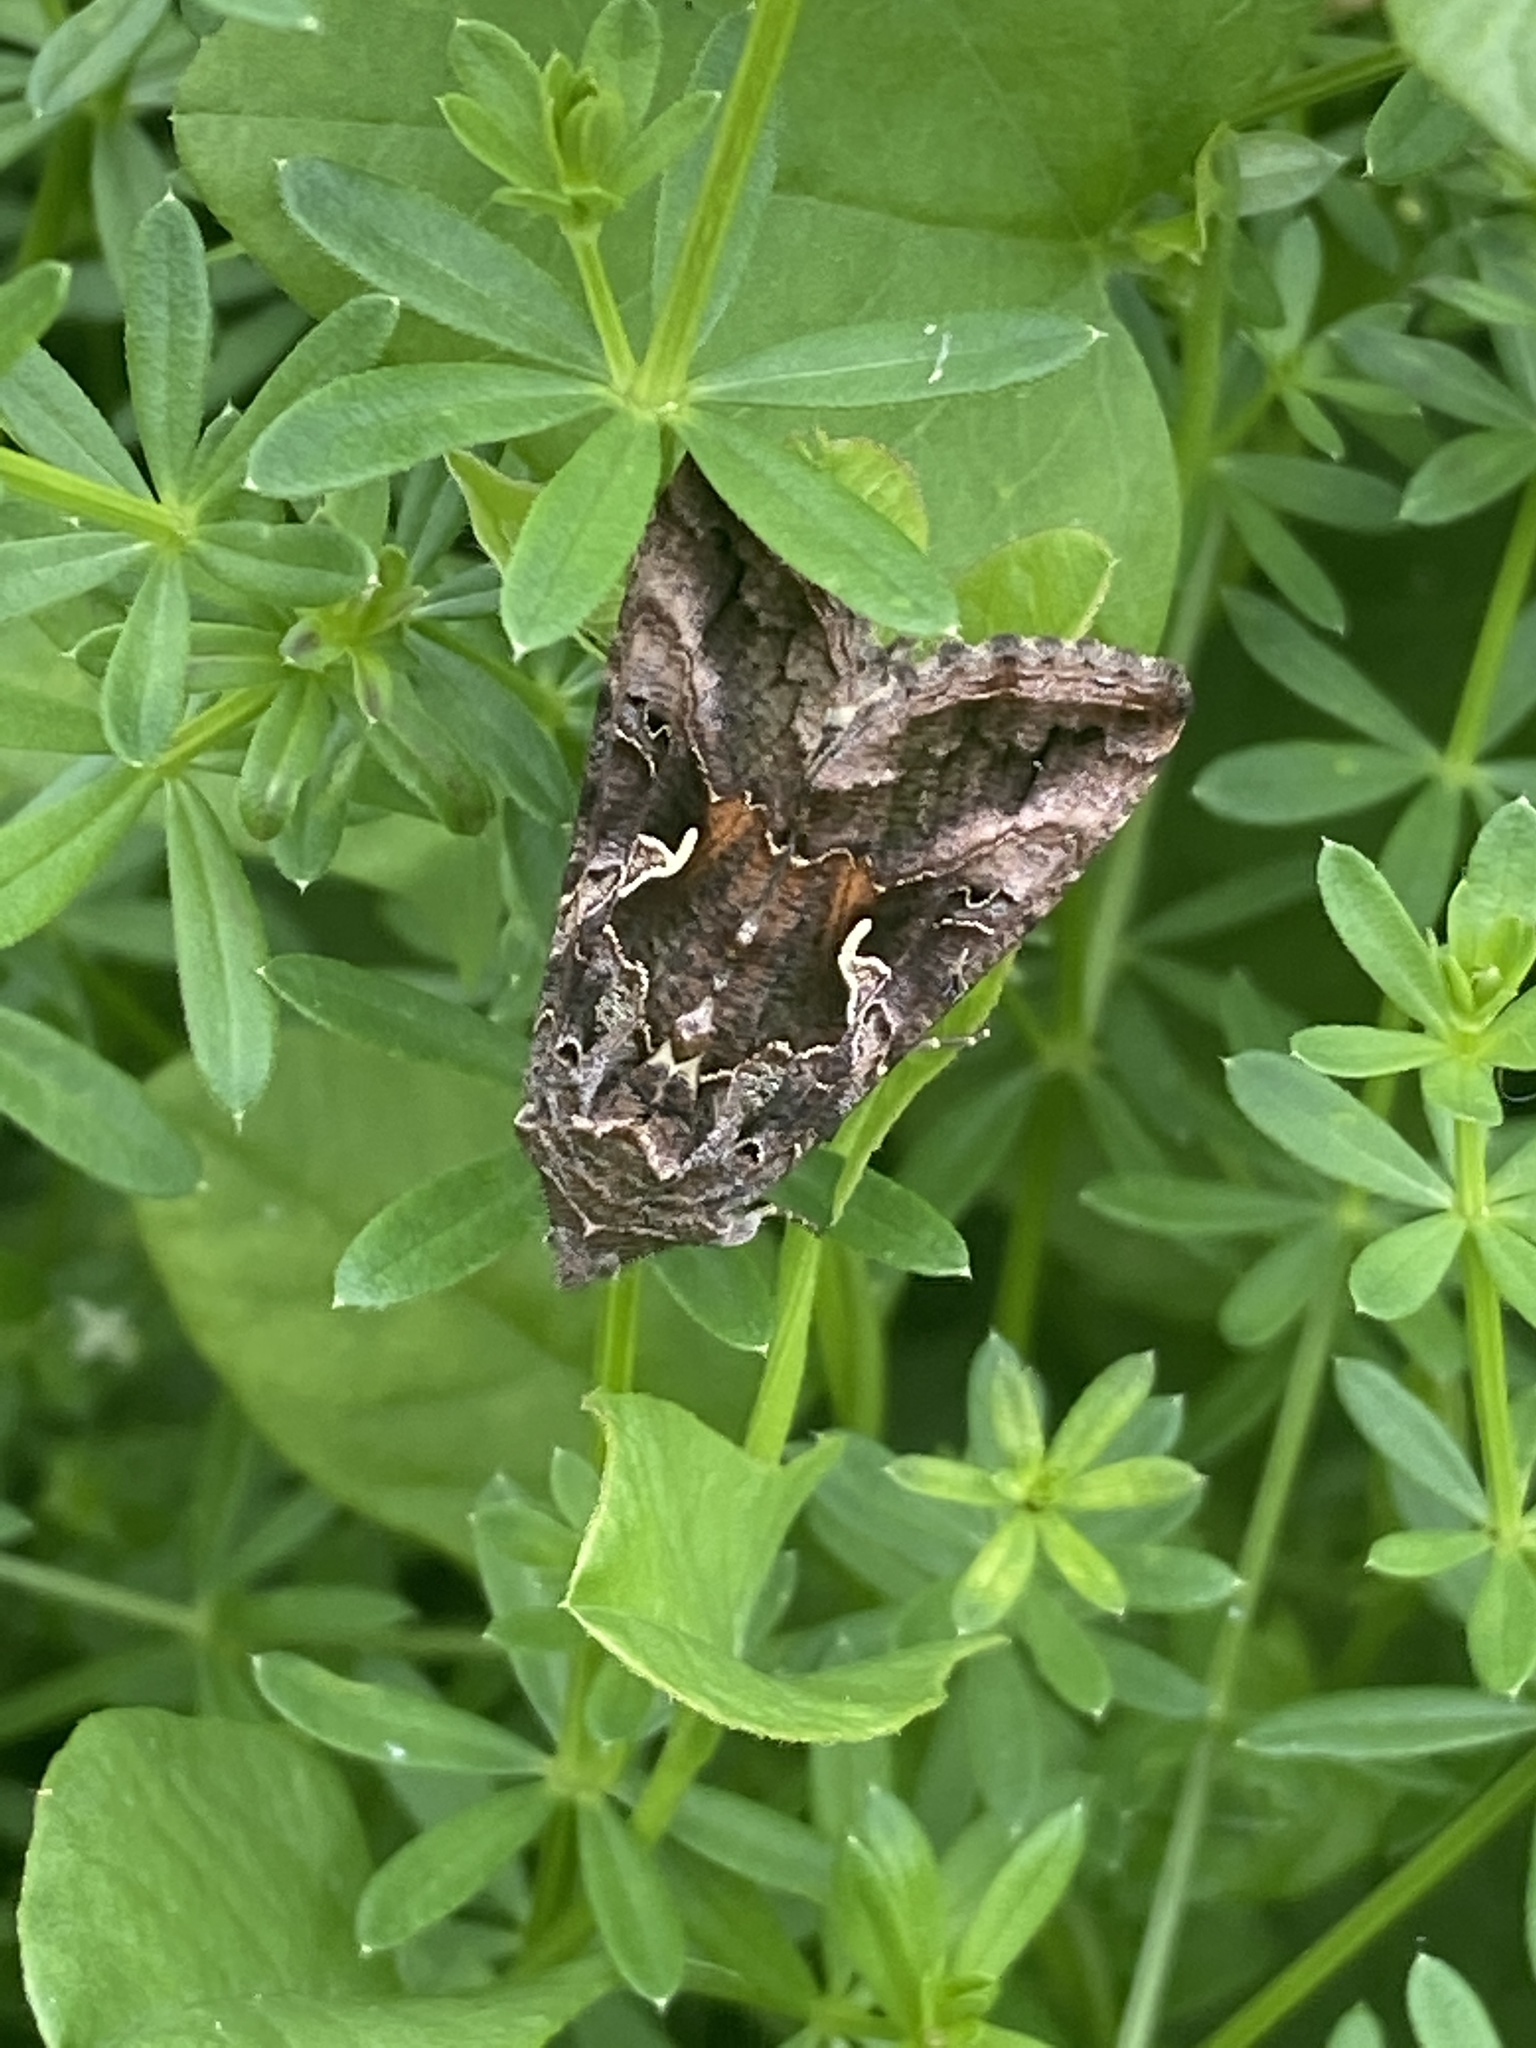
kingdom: Animalia
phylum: Arthropoda
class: Insecta
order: Lepidoptera
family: Noctuidae
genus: Autographa
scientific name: Autographa gamma
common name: Silver y
